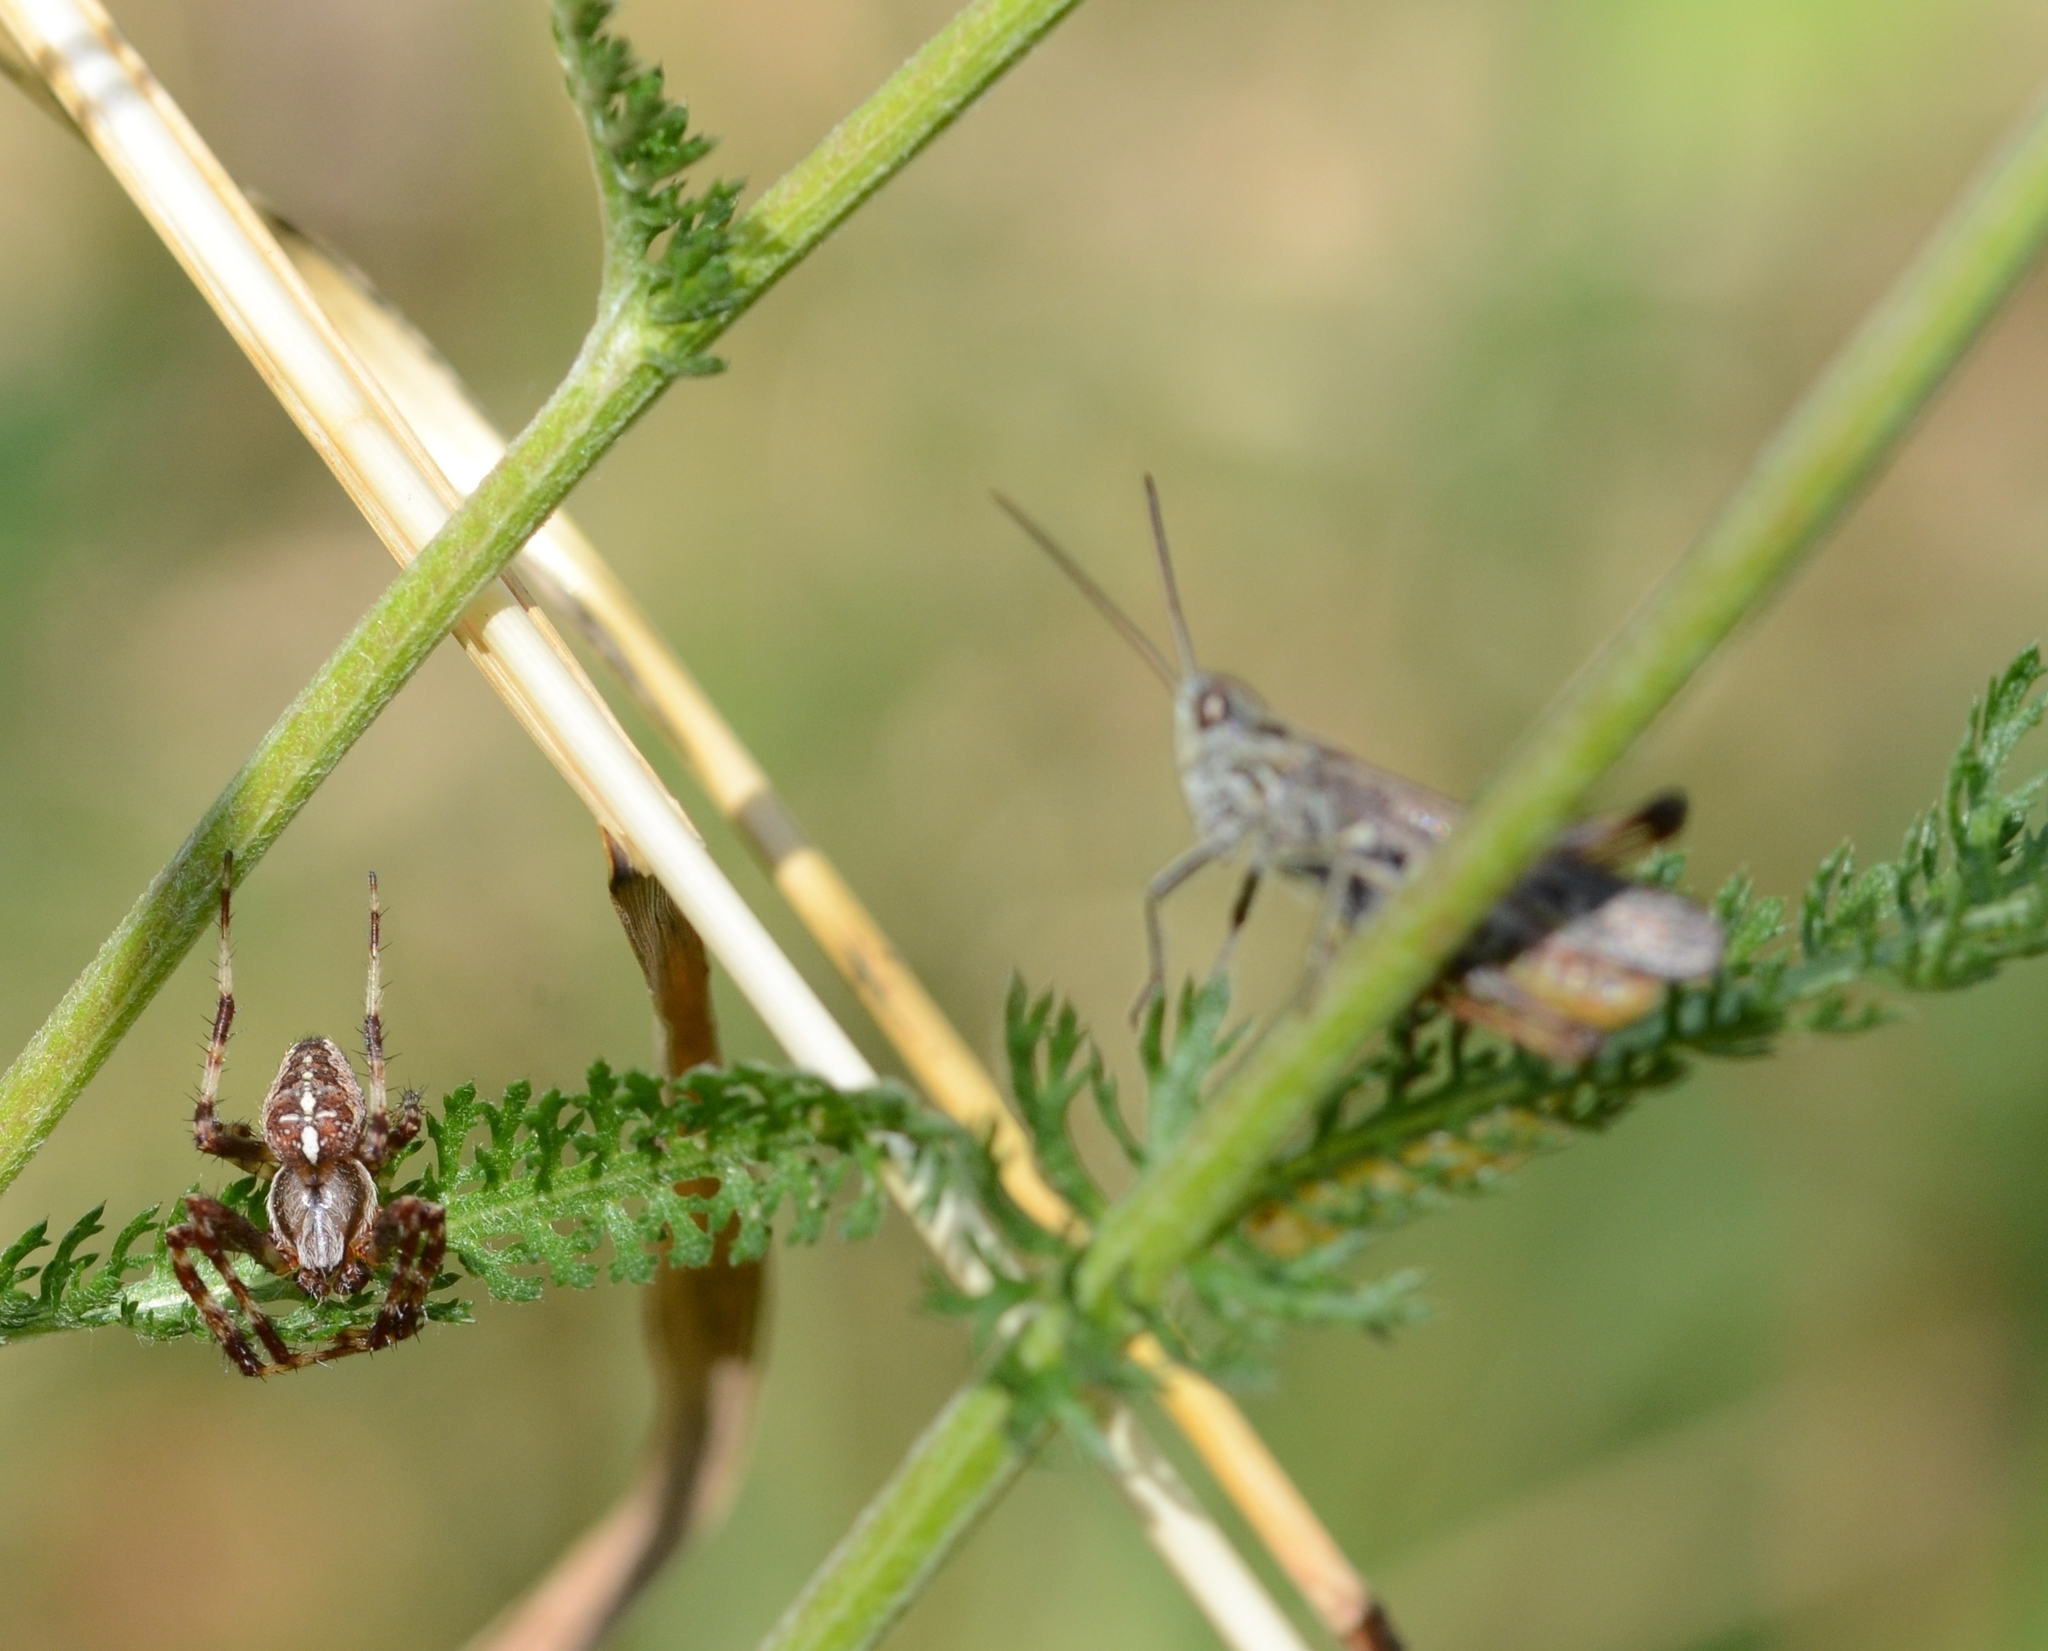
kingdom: Animalia
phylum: Arthropoda
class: Arachnida
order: Araneae
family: Araneidae
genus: Araneus
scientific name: Araneus diadematus
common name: Cross orbweaver
